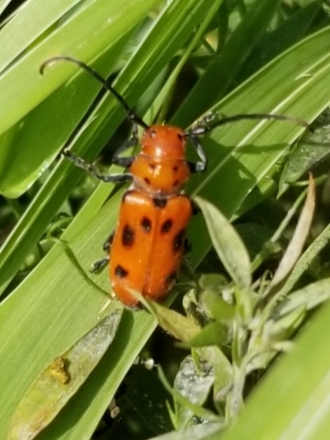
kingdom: Animalia
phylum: Arthropoda
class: Insecta
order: Coleoptera
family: Cerambycidae
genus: Tetraopes
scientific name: Tetraopes tetrophthalmus
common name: Red milkweed beetle
